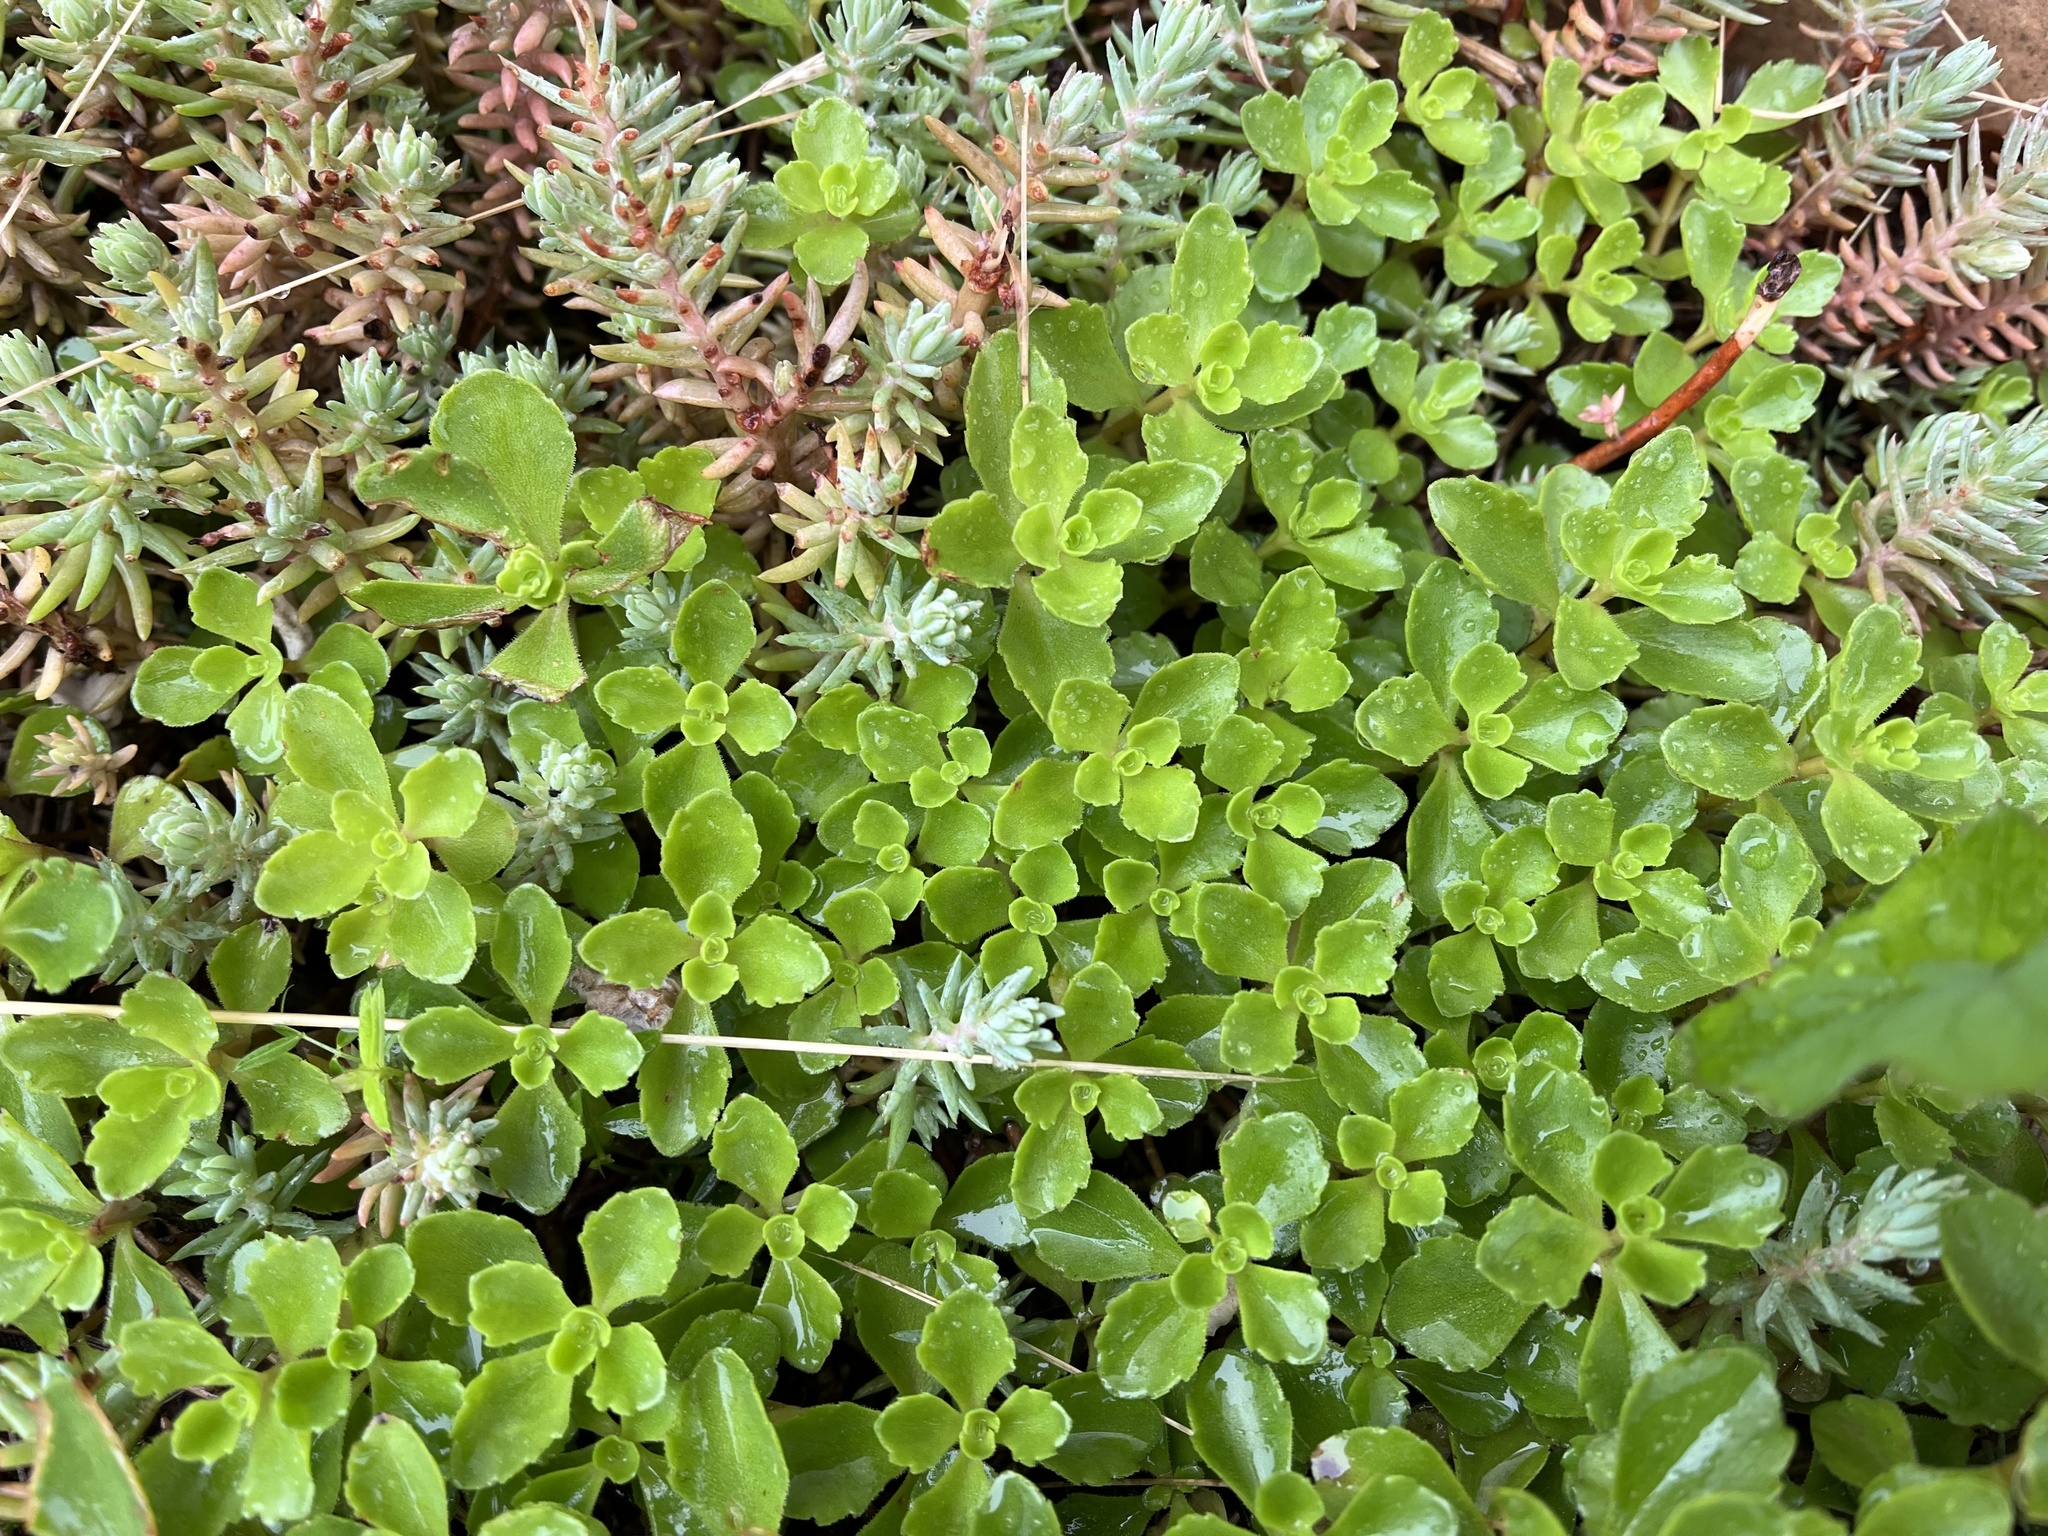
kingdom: Plantae
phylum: Tracheophyta
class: Magnoliopsida
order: Saxifragales
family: Crassulaceae
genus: Phedimus
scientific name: Phedimus spurius
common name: Caucasian stonecrop
